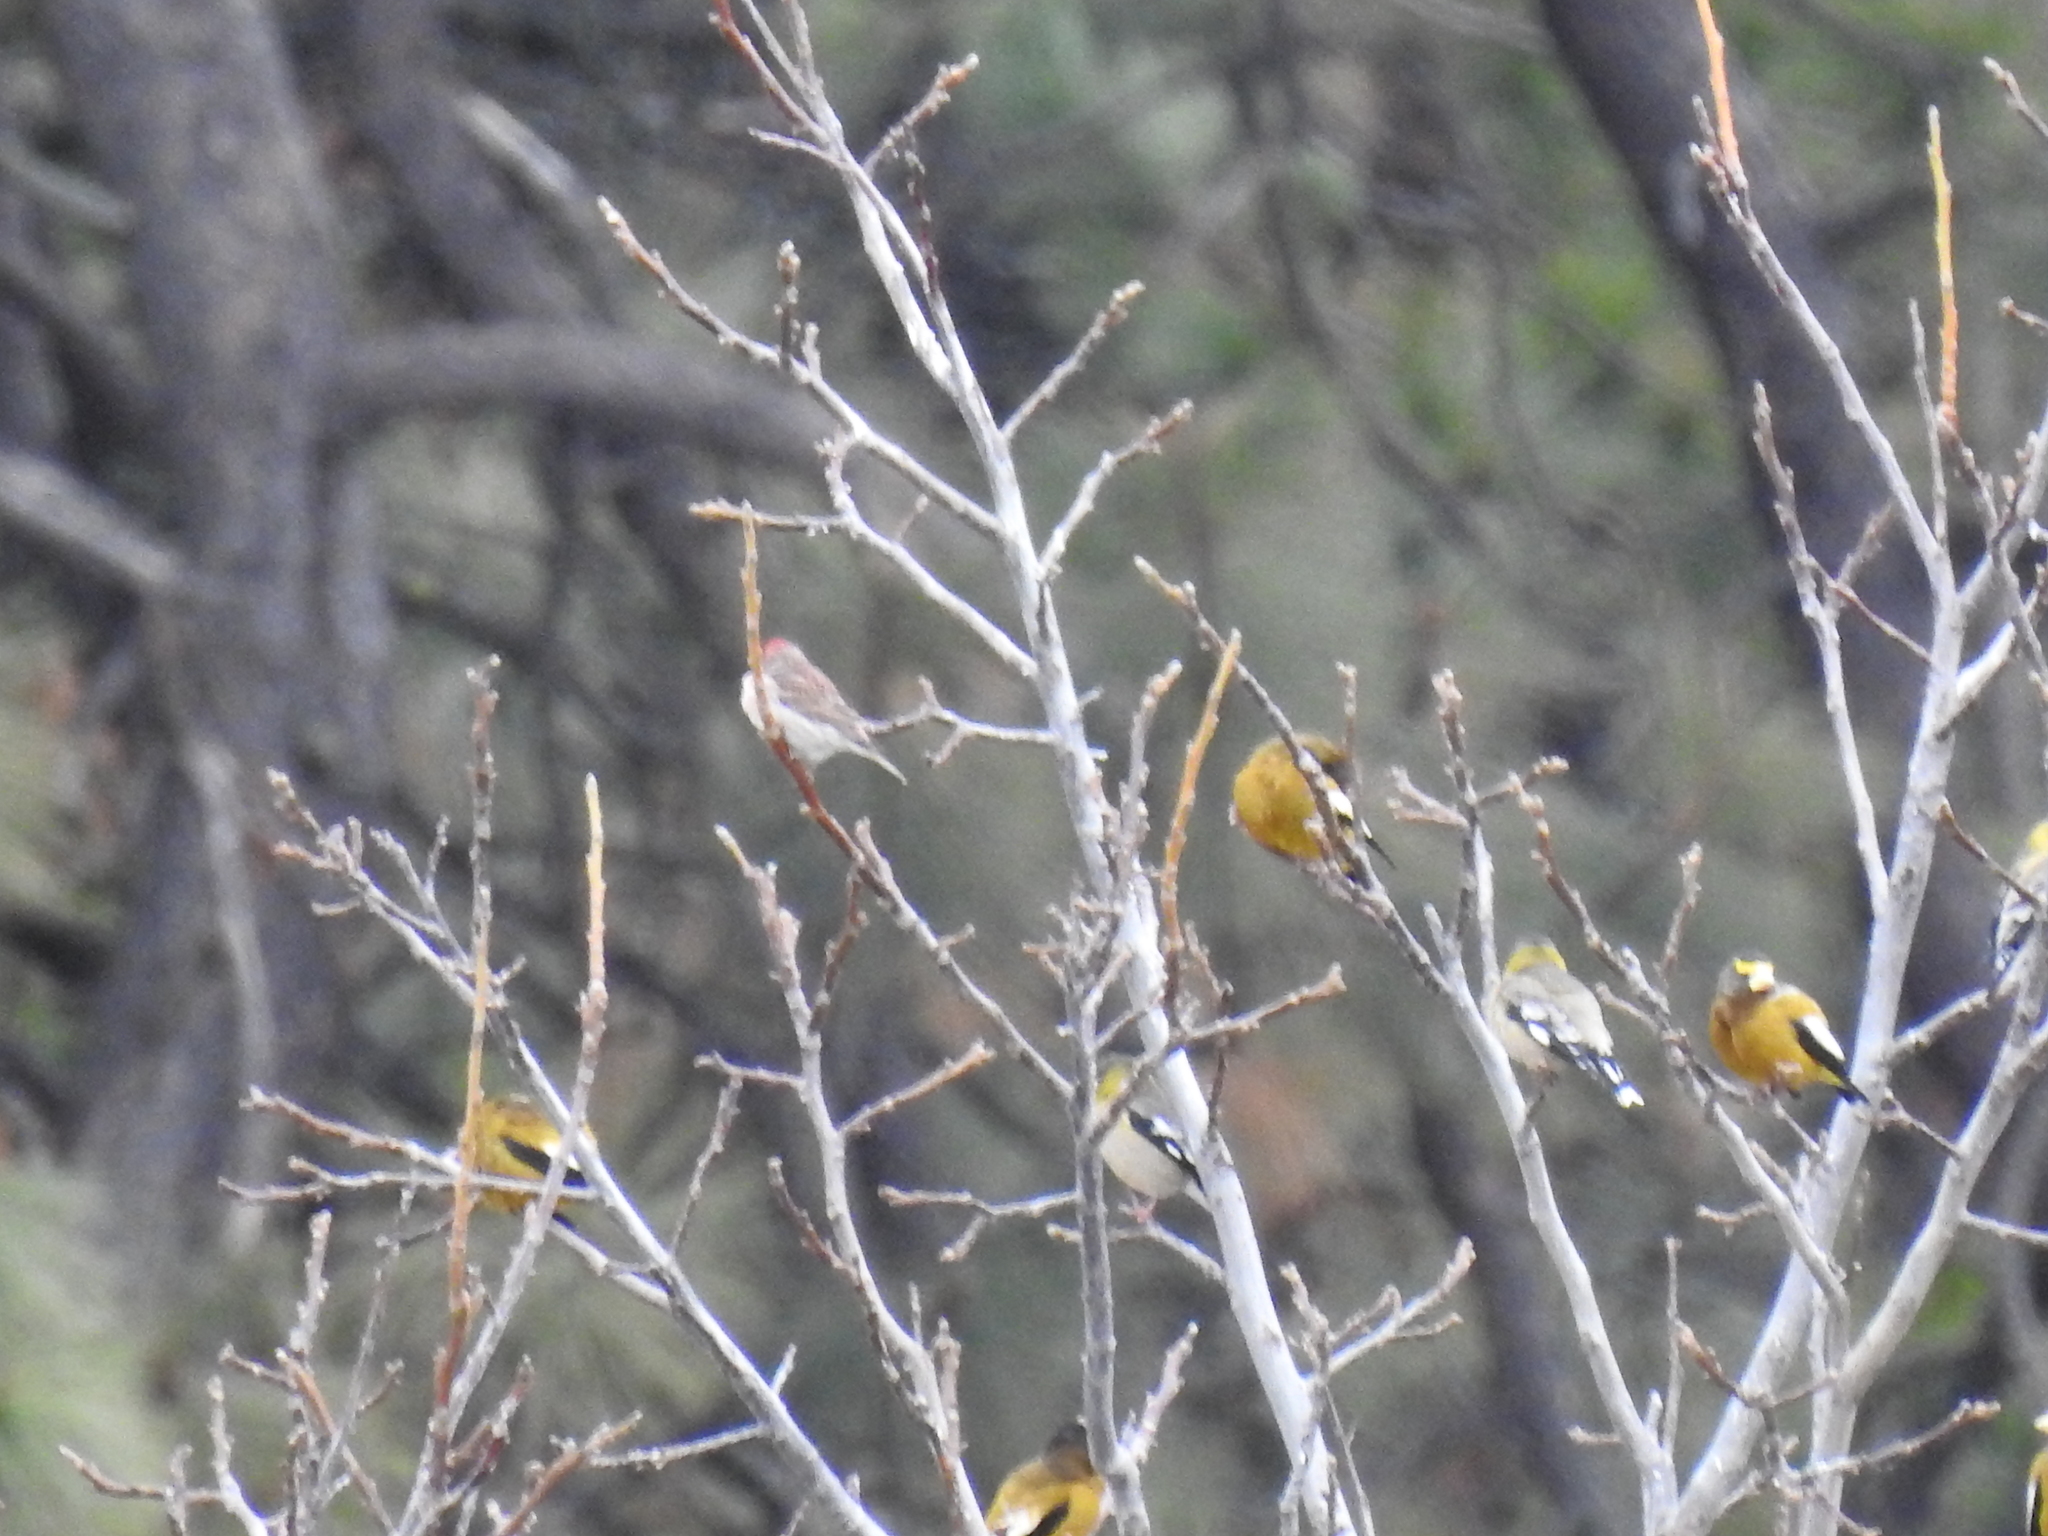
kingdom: Animalia
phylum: Chordata
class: Aves
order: Passeriformes
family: Fringillidae
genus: Haemorhous
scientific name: Haemorhous cassinii
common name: Cassin's finch
